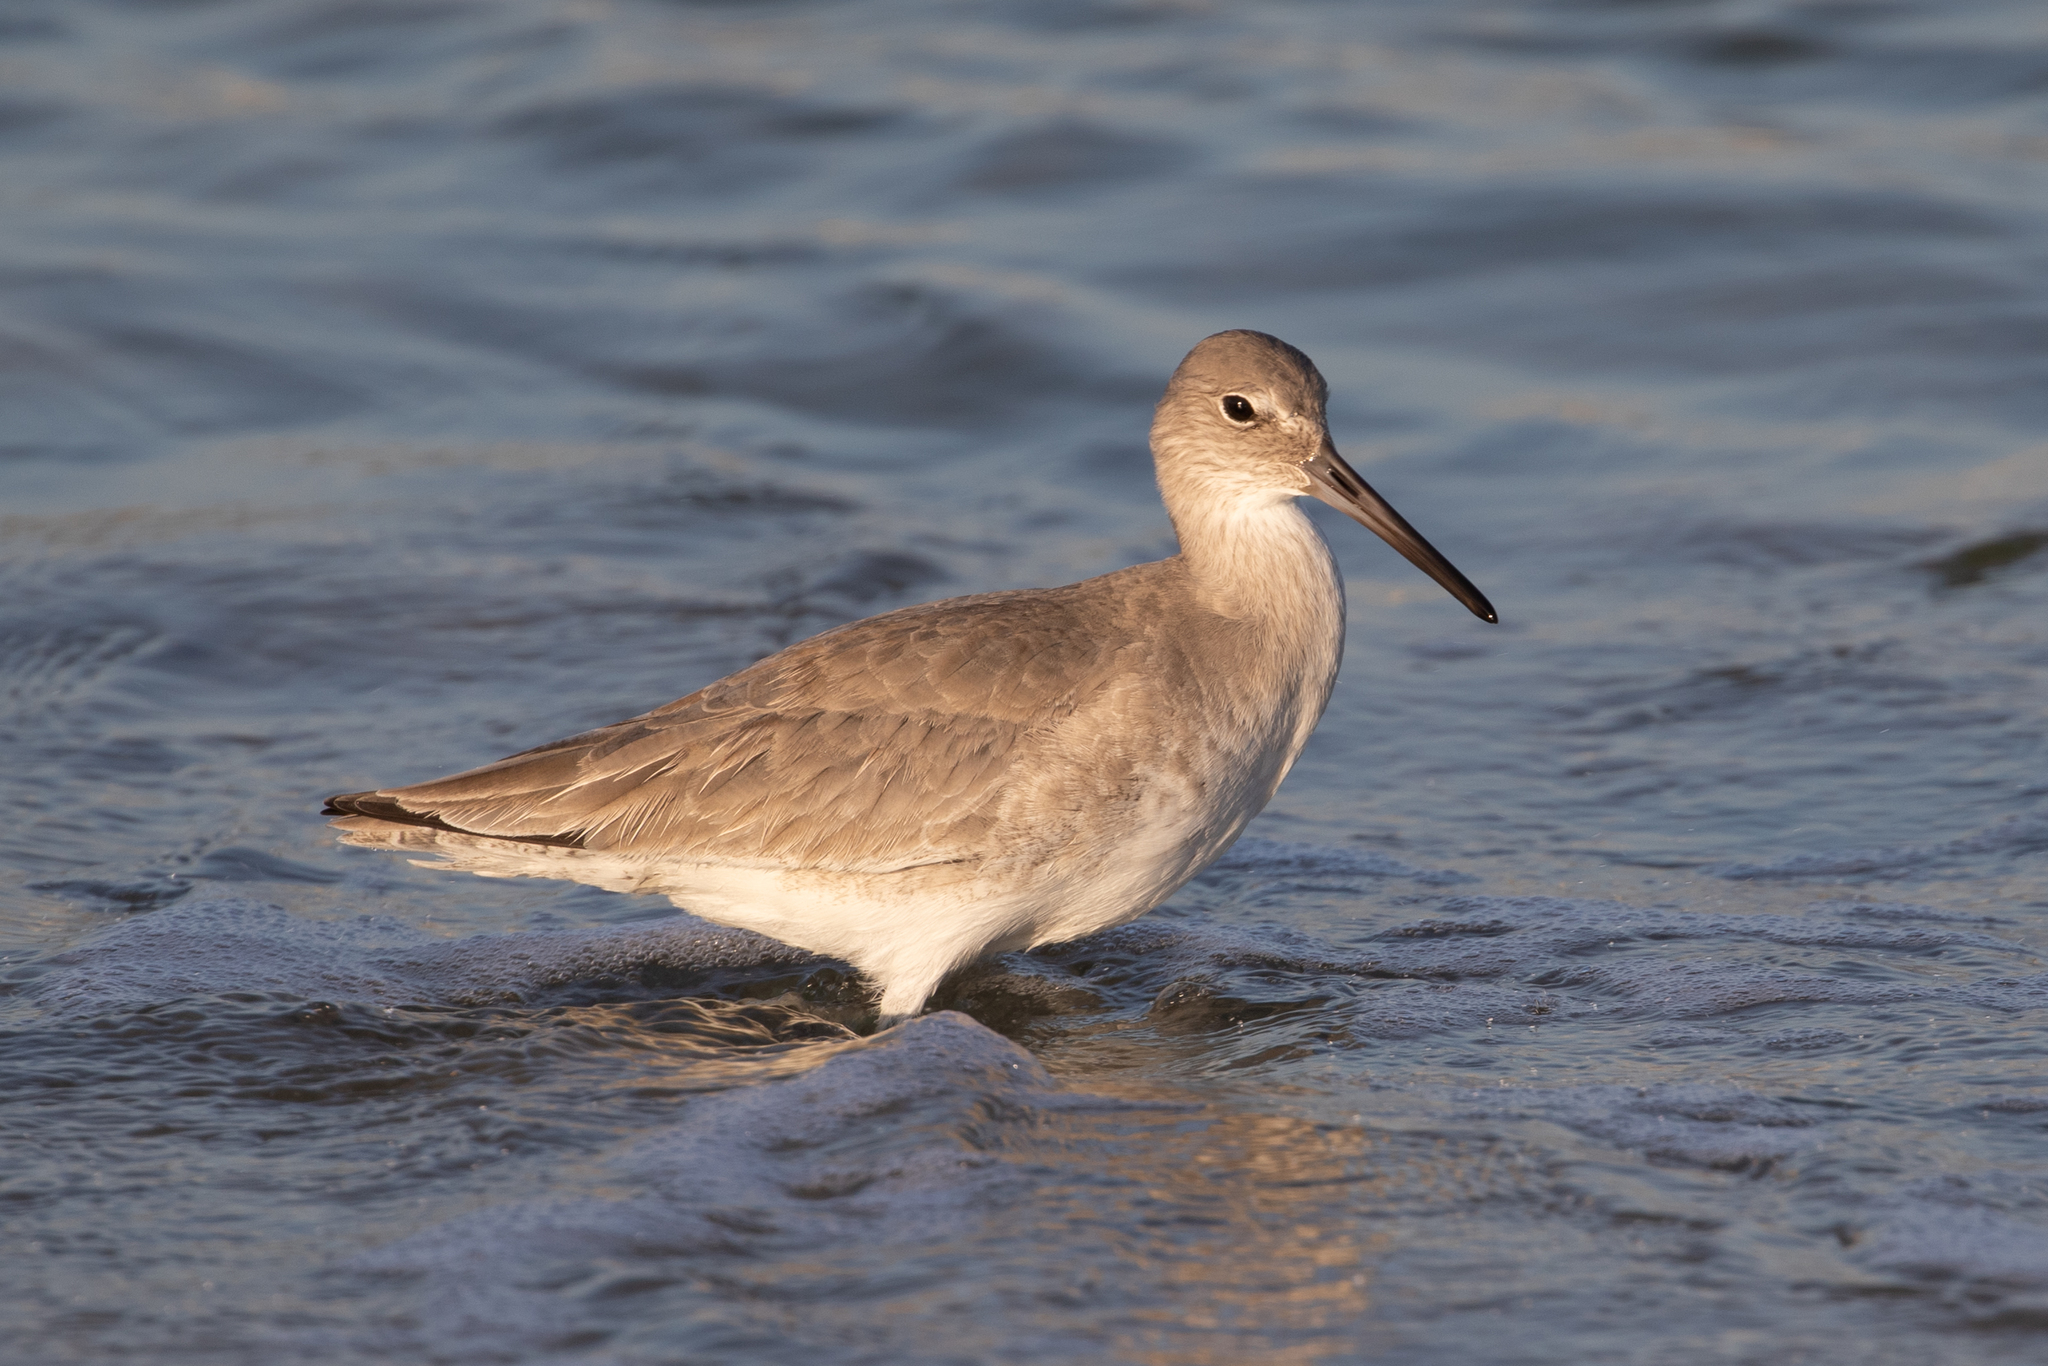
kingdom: Animalia
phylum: Chordata
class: Aves
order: Charadriiformes
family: Scolopacidae
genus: Tringa
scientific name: Tringa semipalmata
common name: Willet
